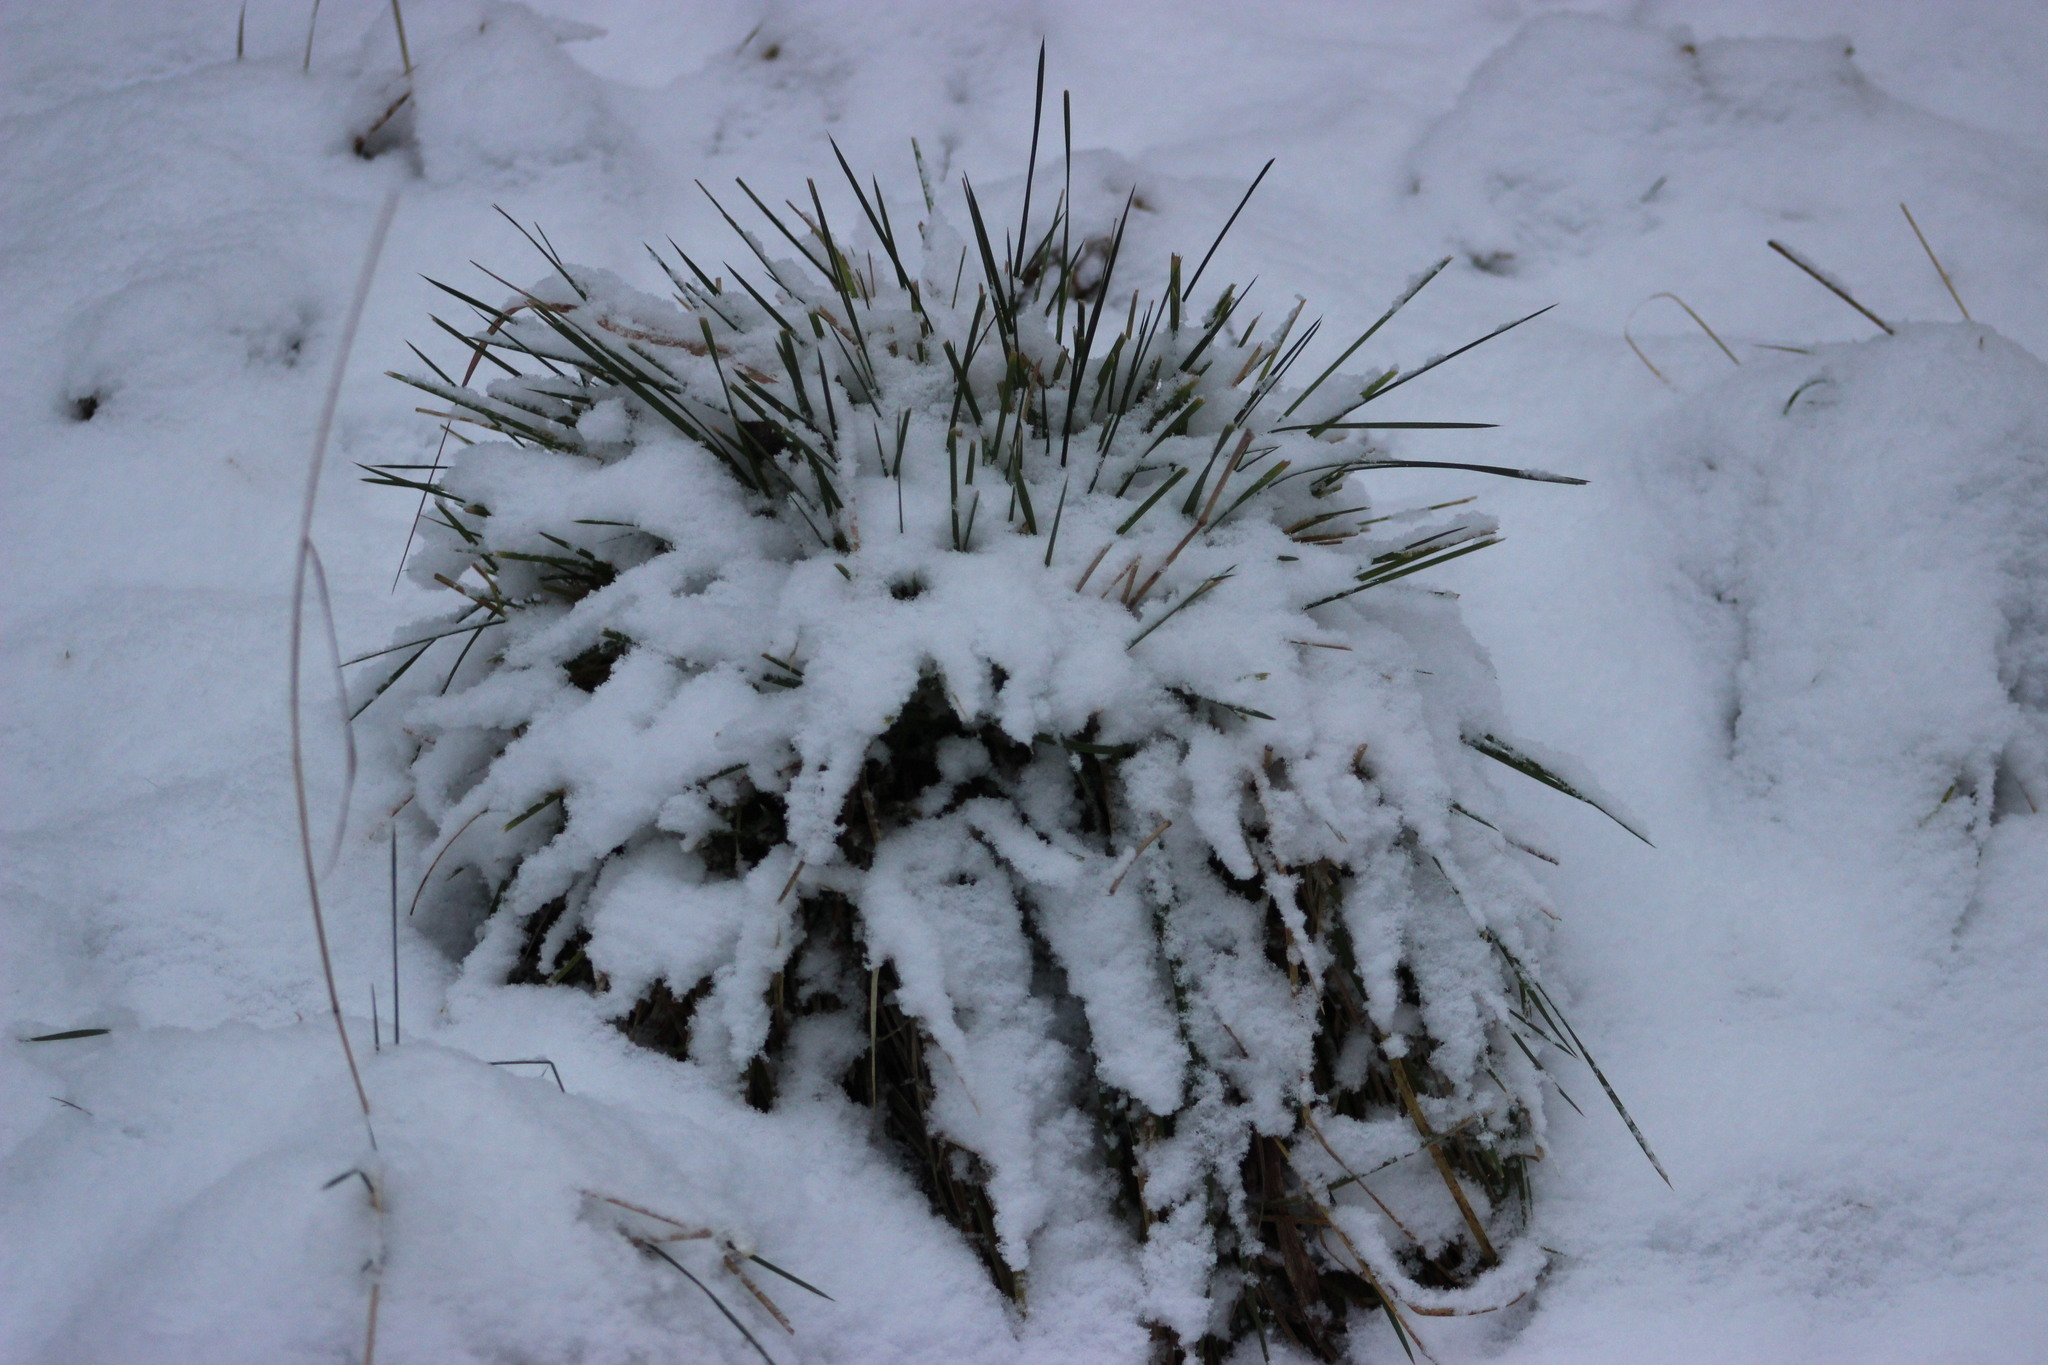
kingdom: Plantae
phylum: Tracheophyta
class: Liliopsida
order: Poales
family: Poaceae
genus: Deschampsia
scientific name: Deschampsia cespitosa
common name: Tufted hair-grass
